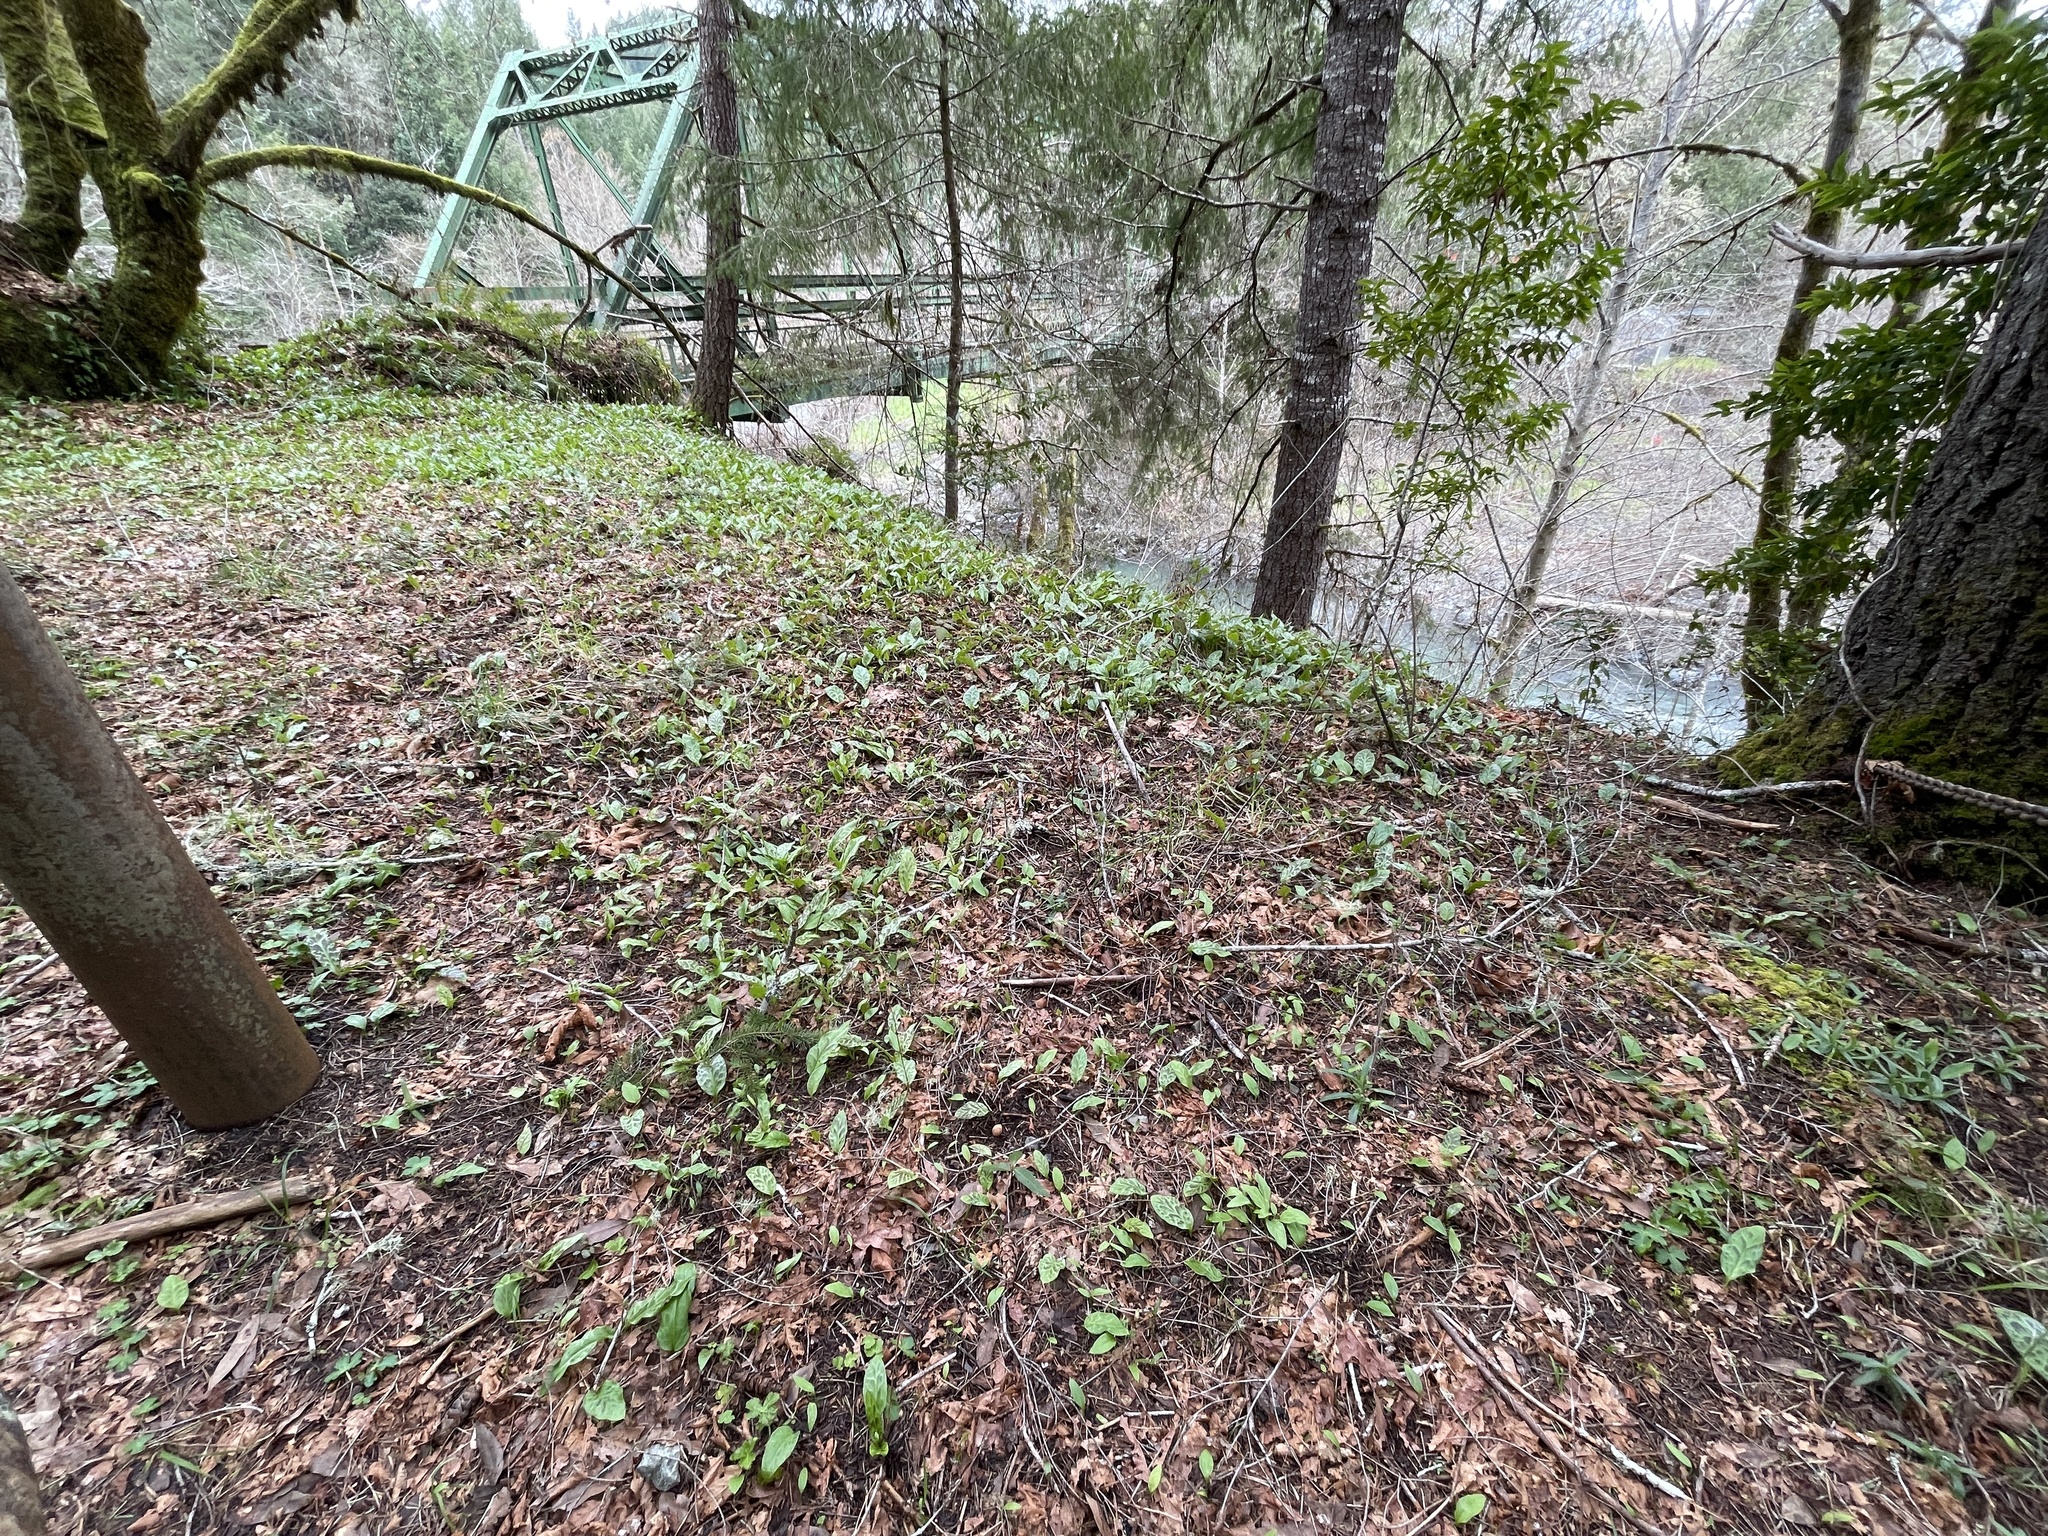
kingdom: Plantae
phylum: Tracheophyta
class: Liliopsida
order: Liliales
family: Liliaceae
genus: Erythronium
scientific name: Erythronium revolutum
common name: Pink fawn-lily
